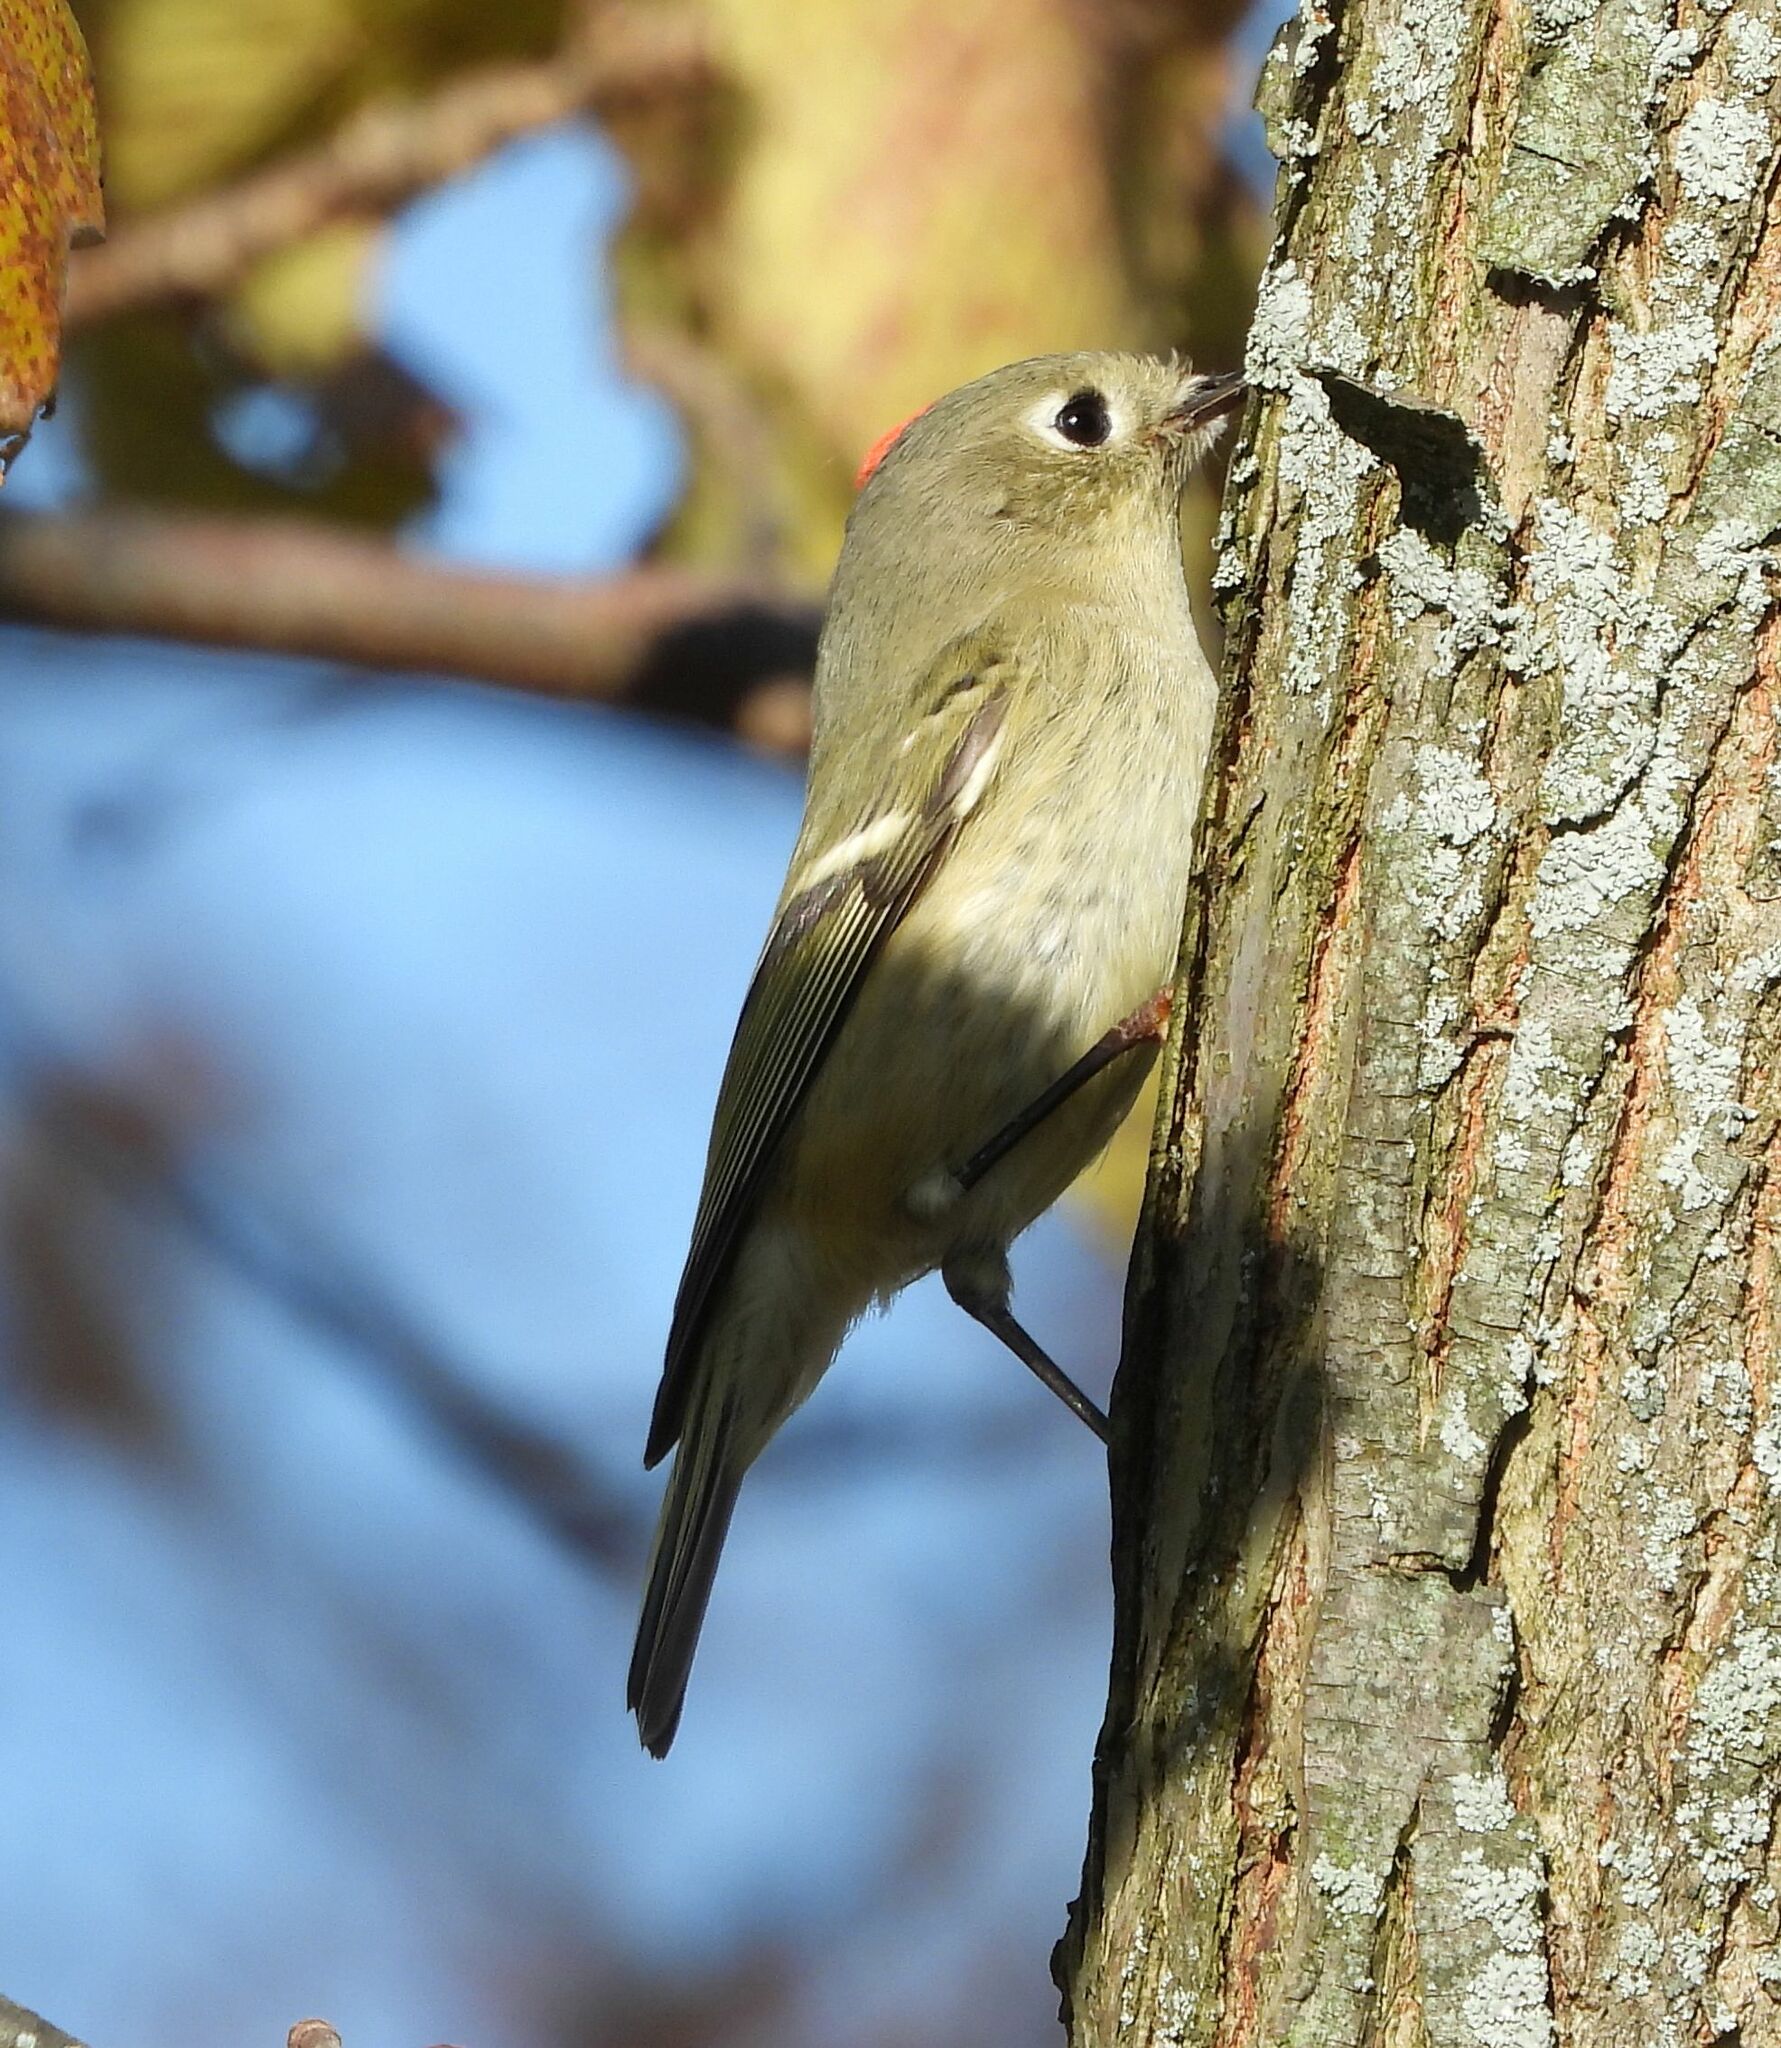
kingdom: Animalia
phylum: Chordata
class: Aves
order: Passeriformes
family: Regulidae
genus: Regulus
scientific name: Regulus calendula
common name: Ruby-crowned kinglet
